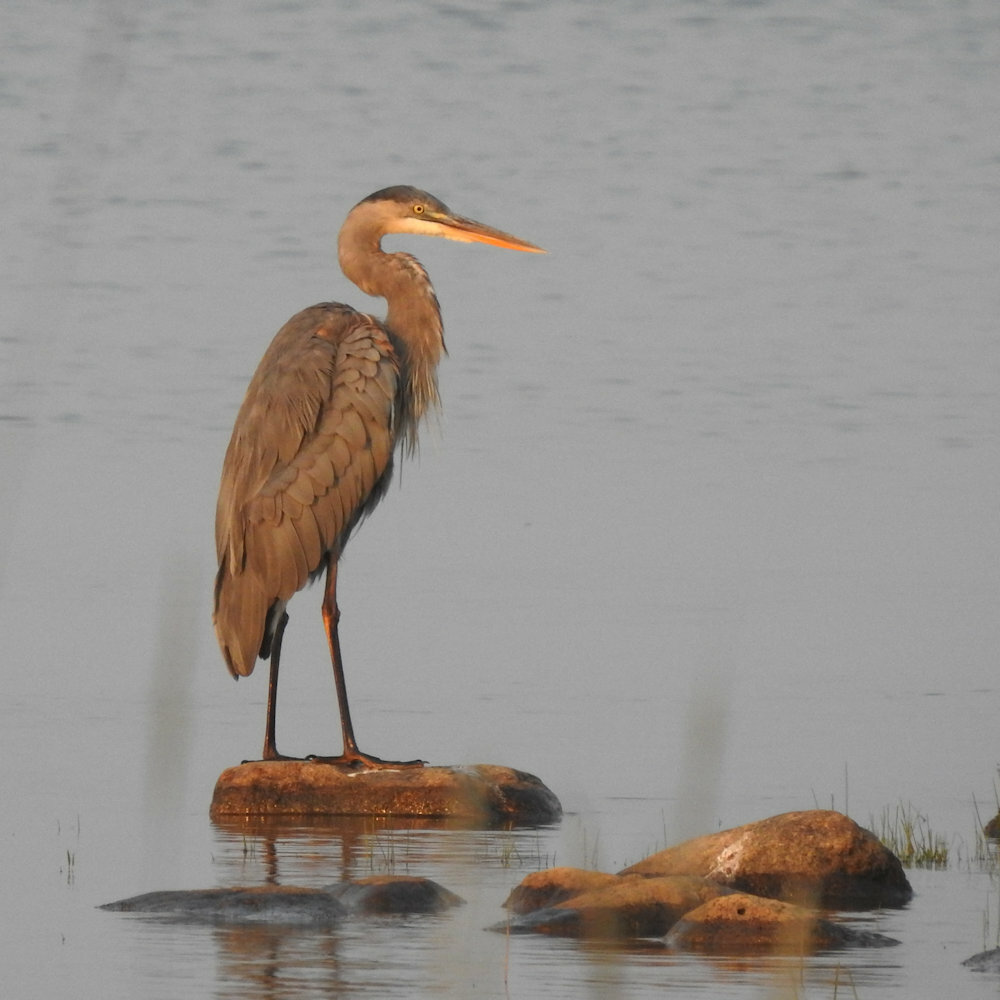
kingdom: Animalia
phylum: Chordata
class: Aves
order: Pelecaniformes
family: Ardeidae
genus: Ardea
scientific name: Ardea herodias
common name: Great blue heron
